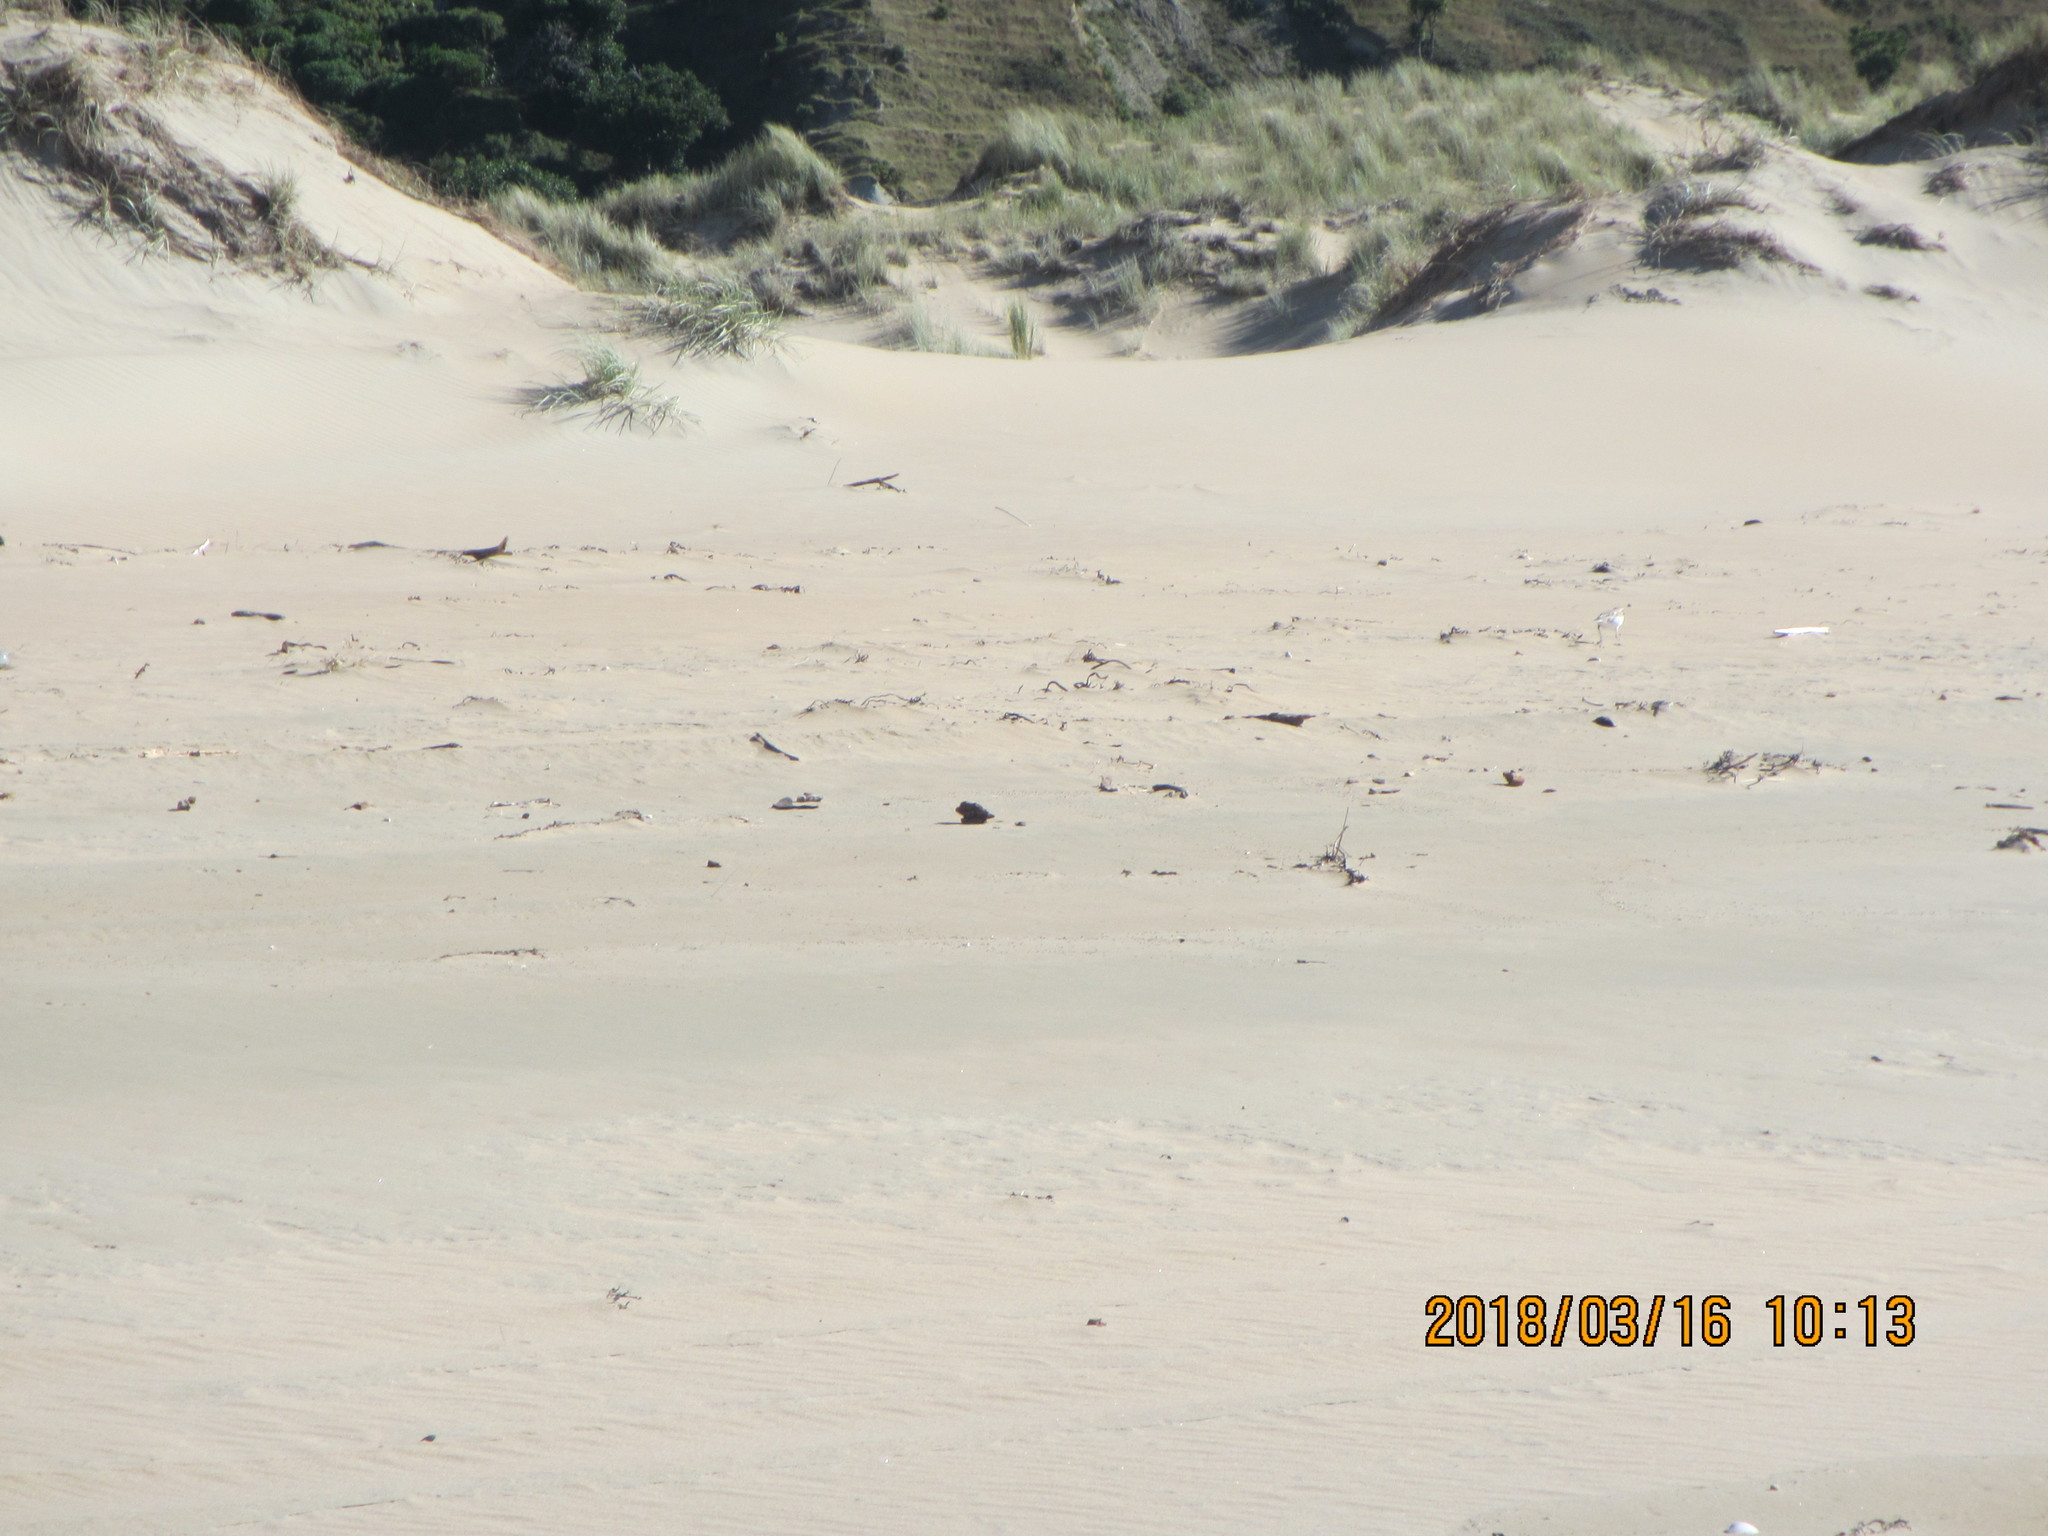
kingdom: Animalia
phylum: Chordata
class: Aves
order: Charadriiformes
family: Charadriidae
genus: Anarhynchus
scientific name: Anarhynchus
